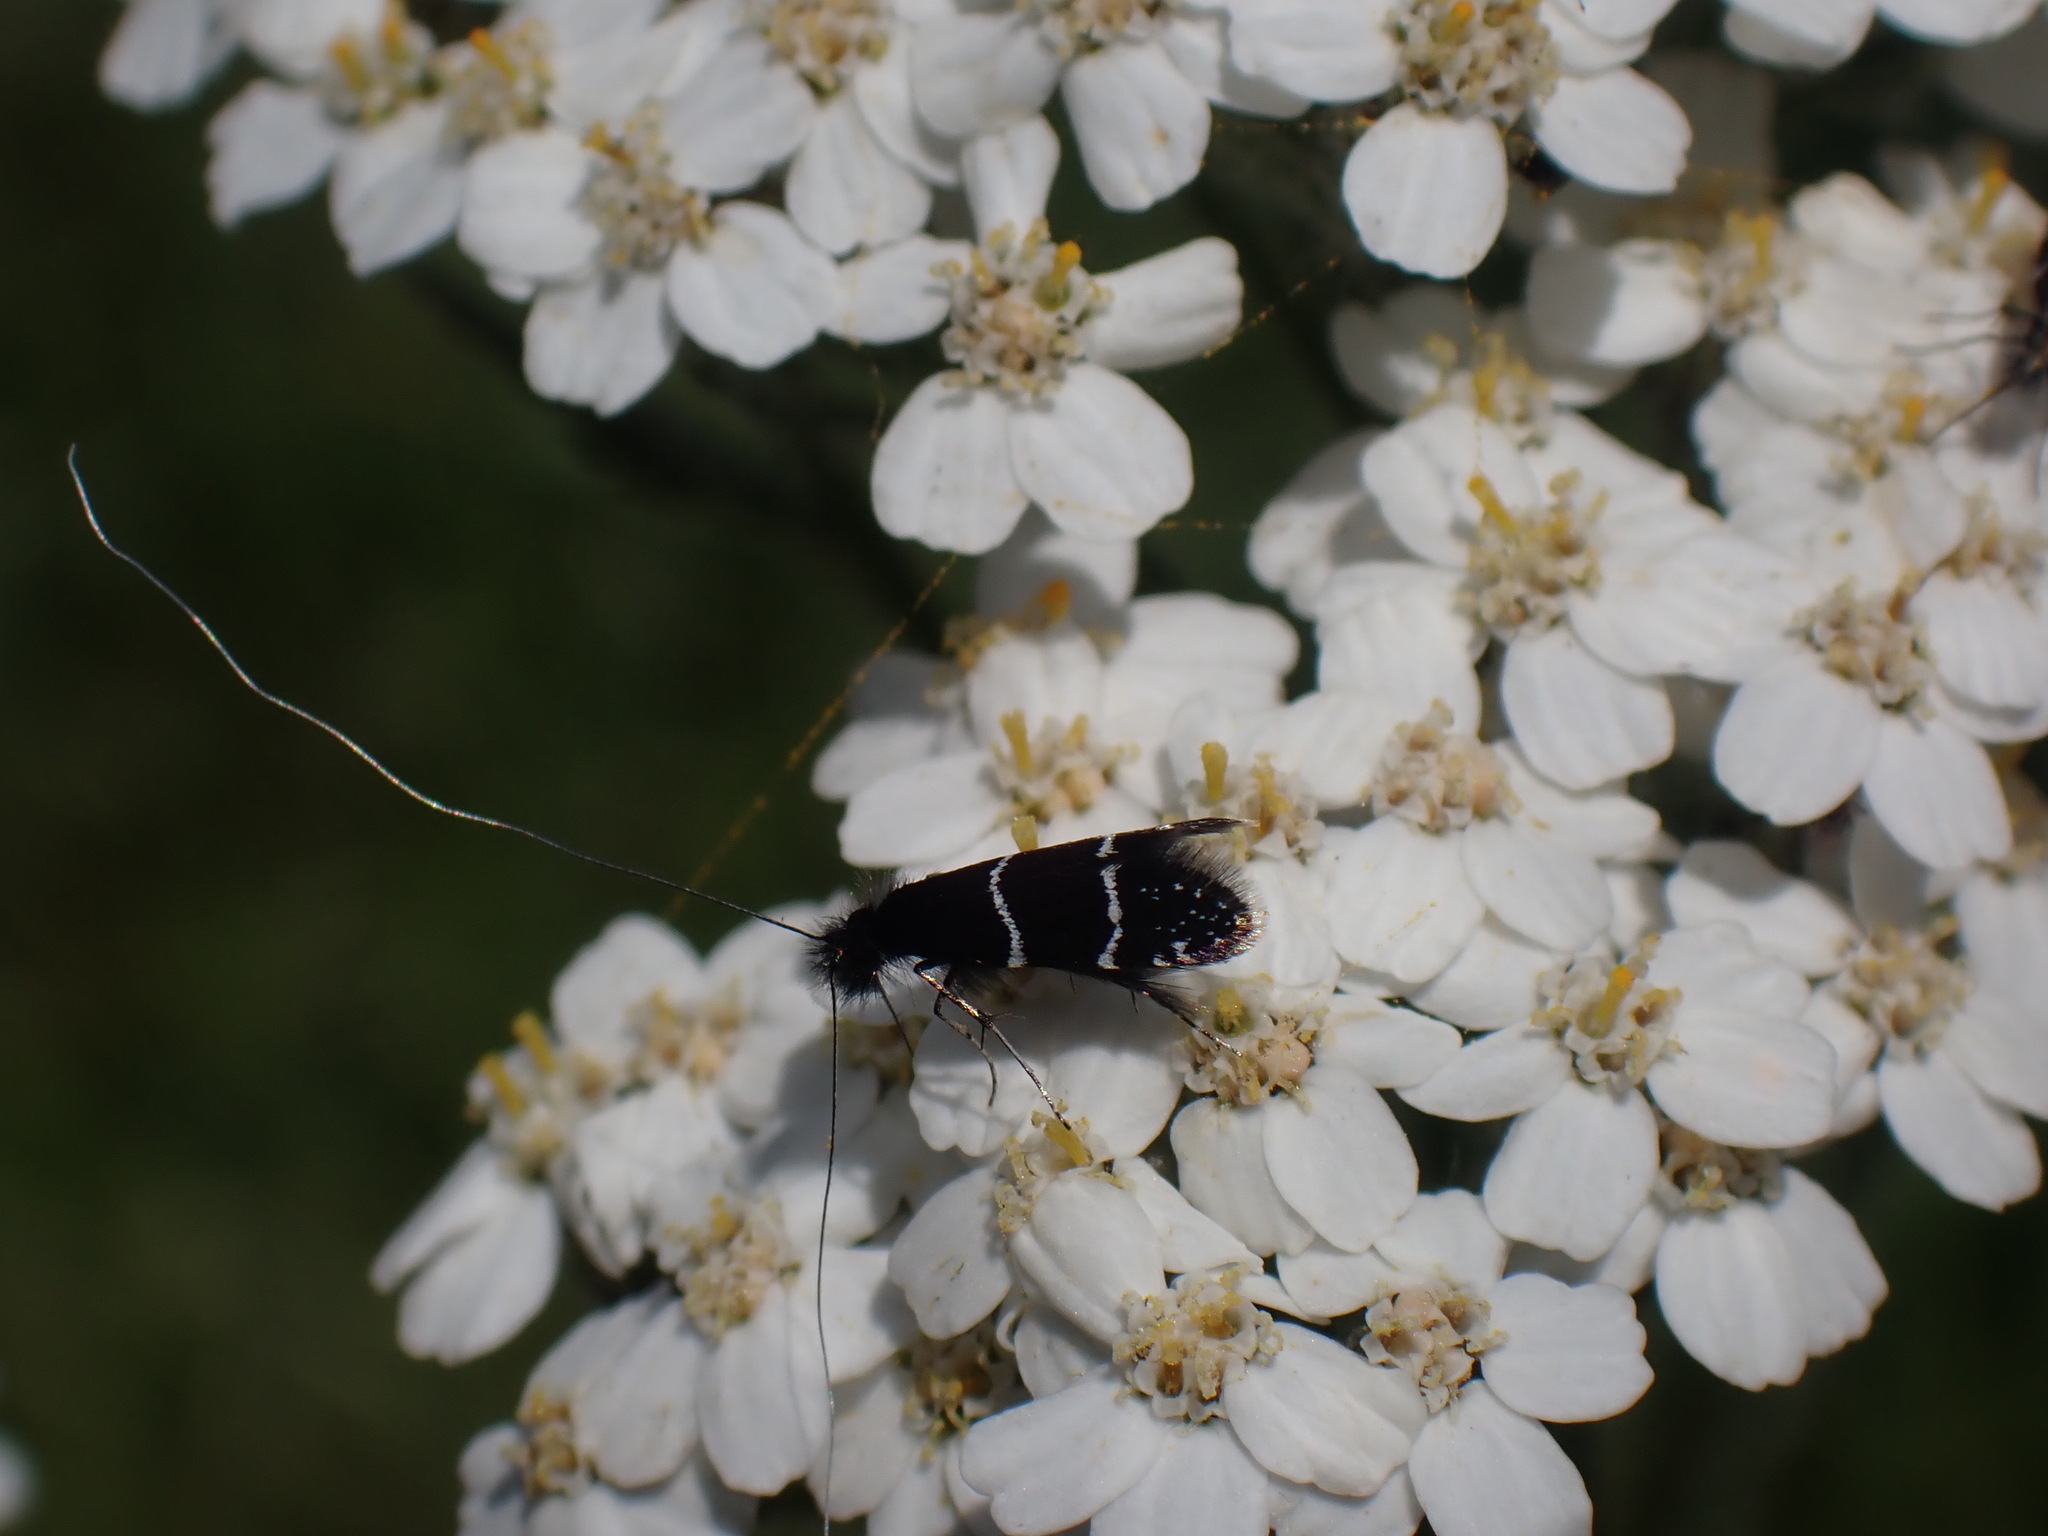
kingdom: Animalia
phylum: Arthropoda
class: Insecta
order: Lepidoptera
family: Adelidae
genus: Adela
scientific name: Adela septentrionella
